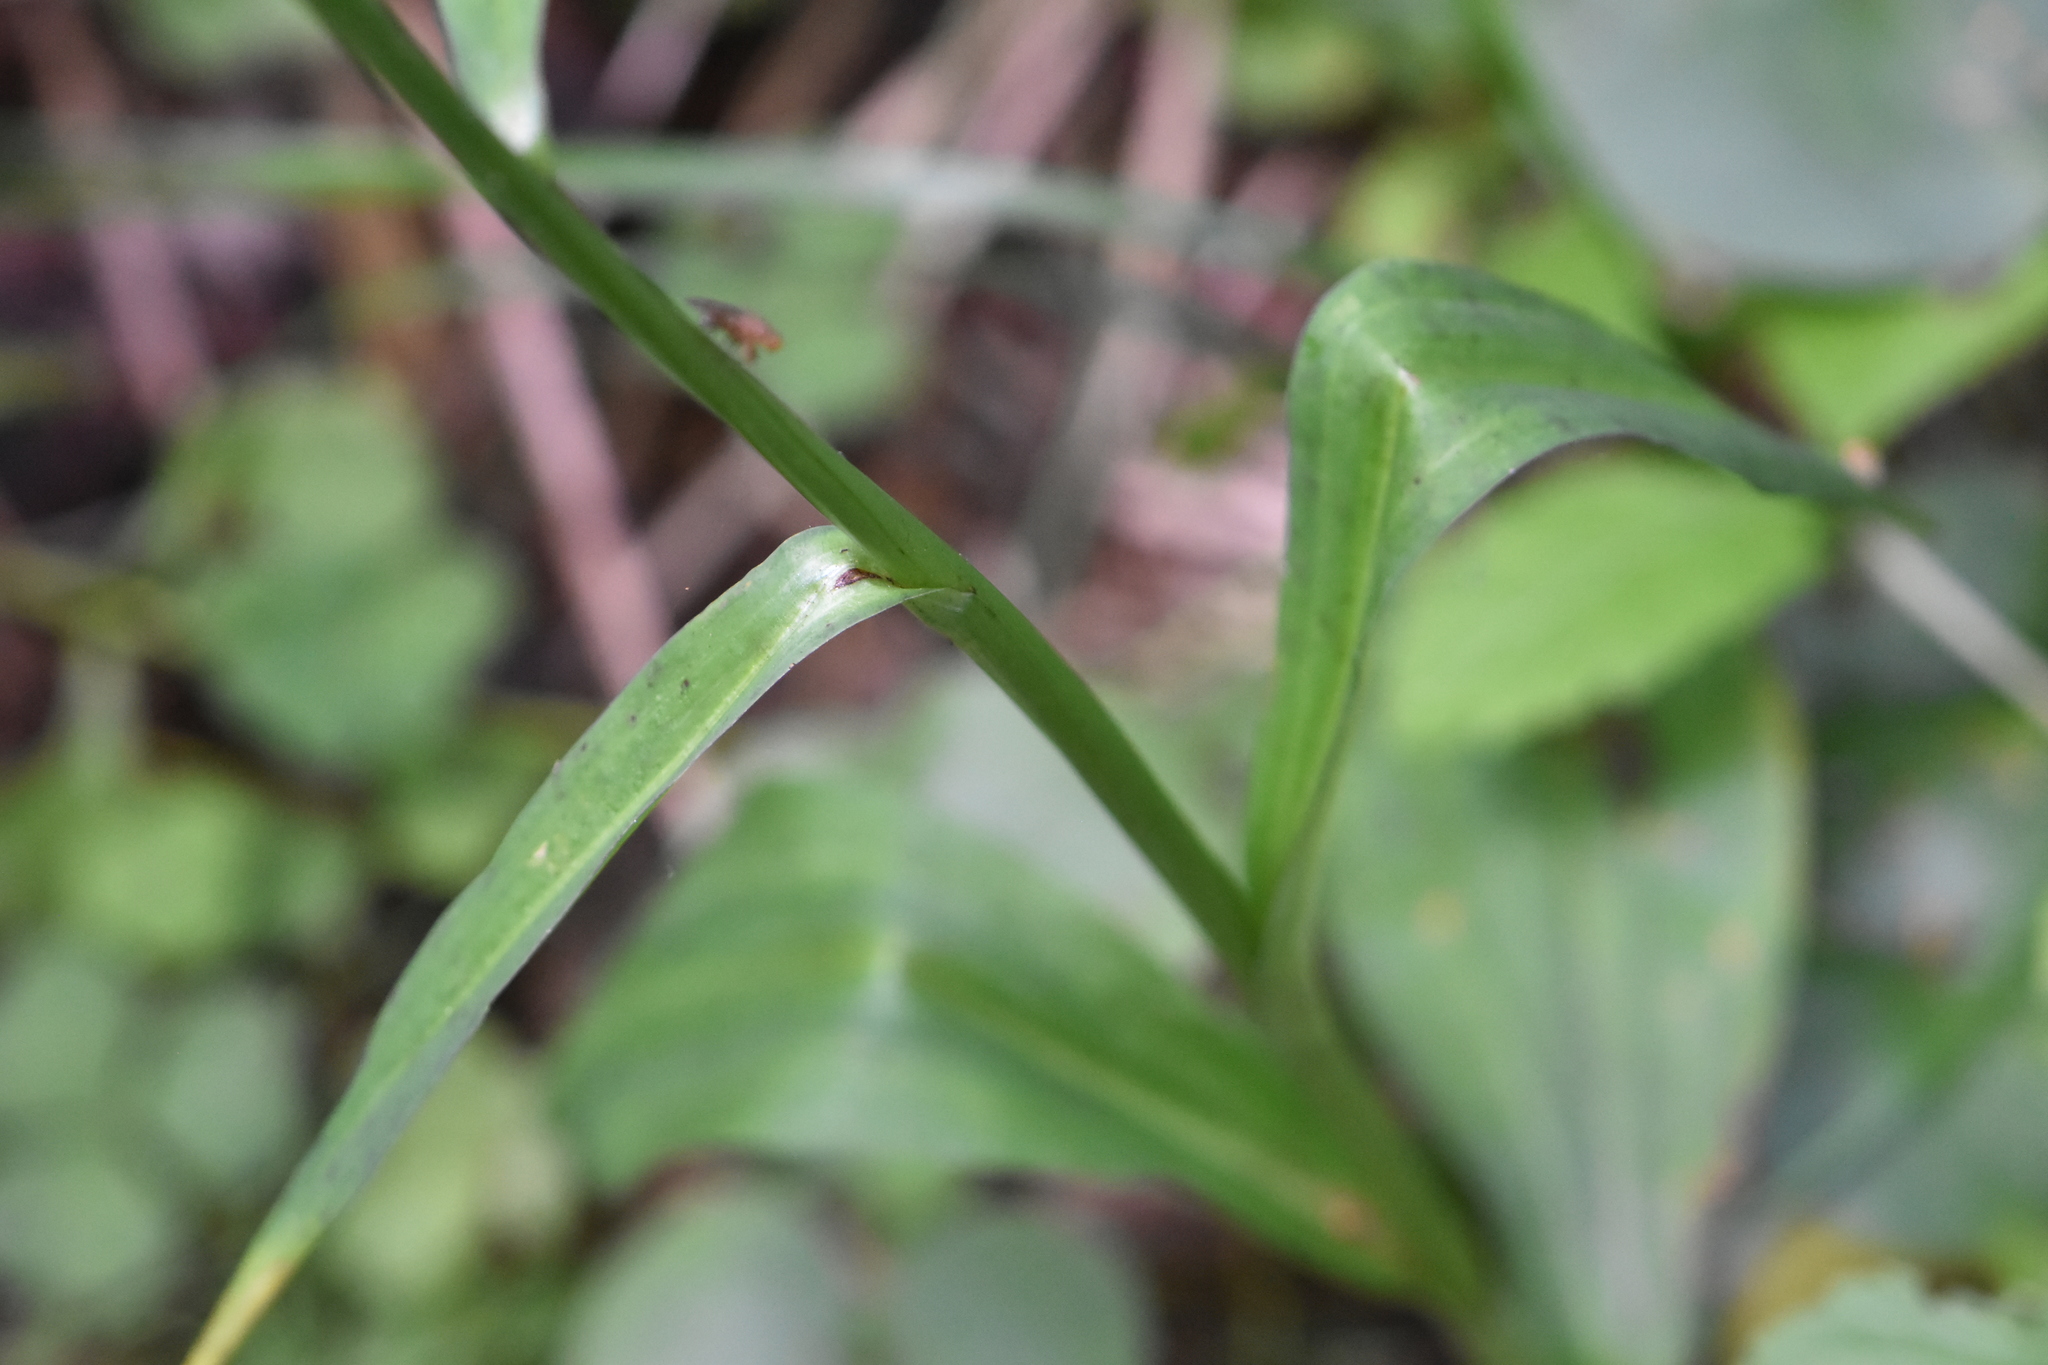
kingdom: Plantae
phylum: Tracheophyta
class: Liliopsida
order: Asparagales
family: Orchidaceae
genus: Dactylorhiza
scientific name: Dactylorhiza maculata
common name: Heath spotted-orchid
